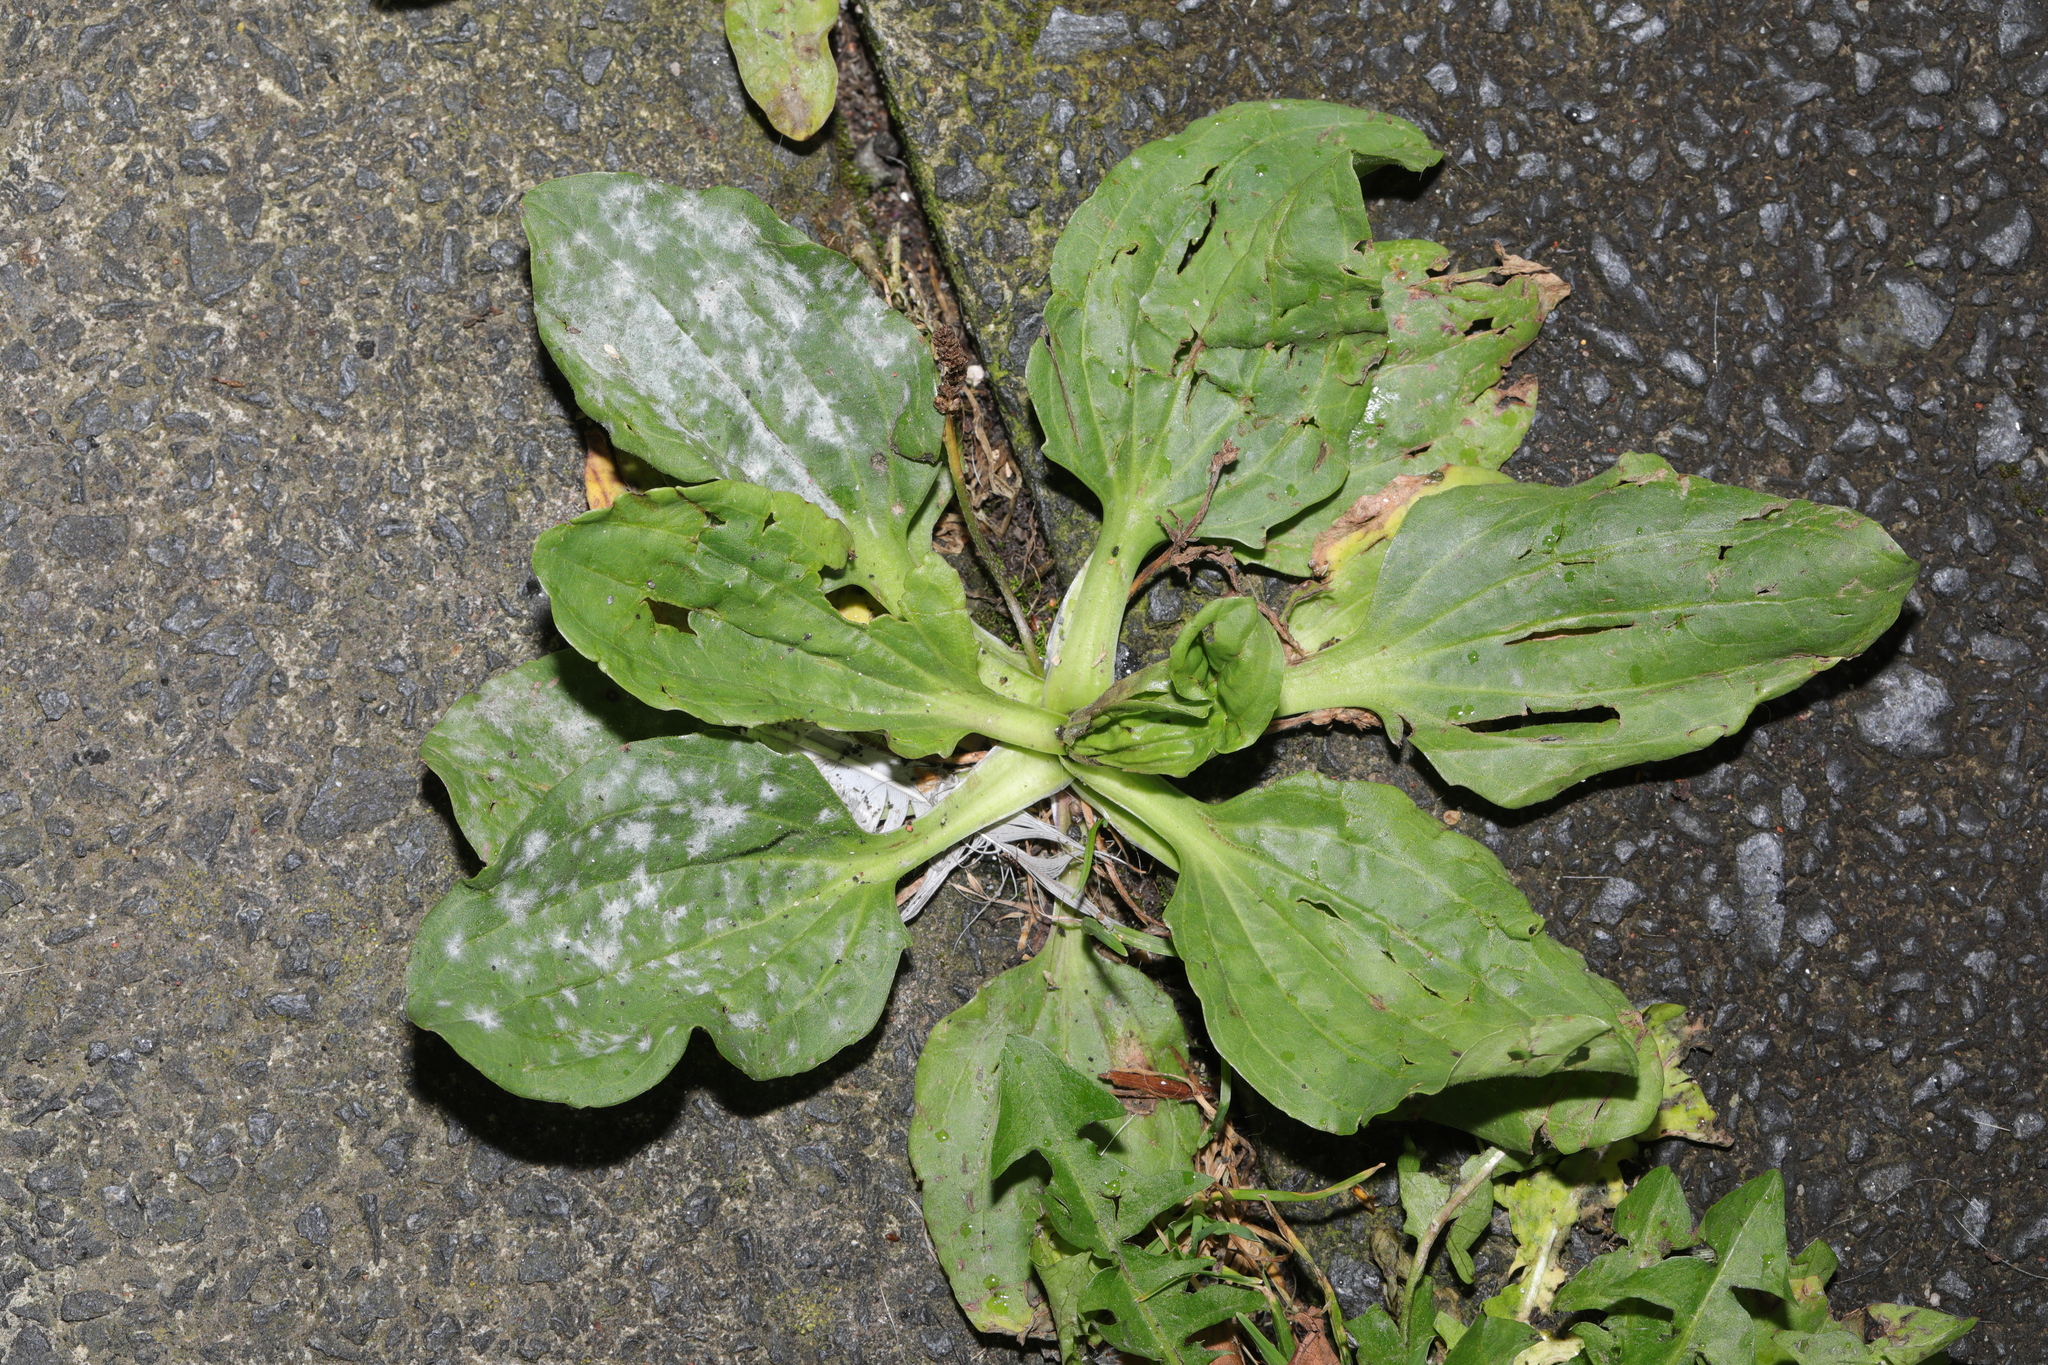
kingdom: Plantae
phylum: Tracheophyta
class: Magnoliopsida
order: Lamiales
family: Plantaginaceae
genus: Plantago
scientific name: Plantago major
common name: Common plantain
